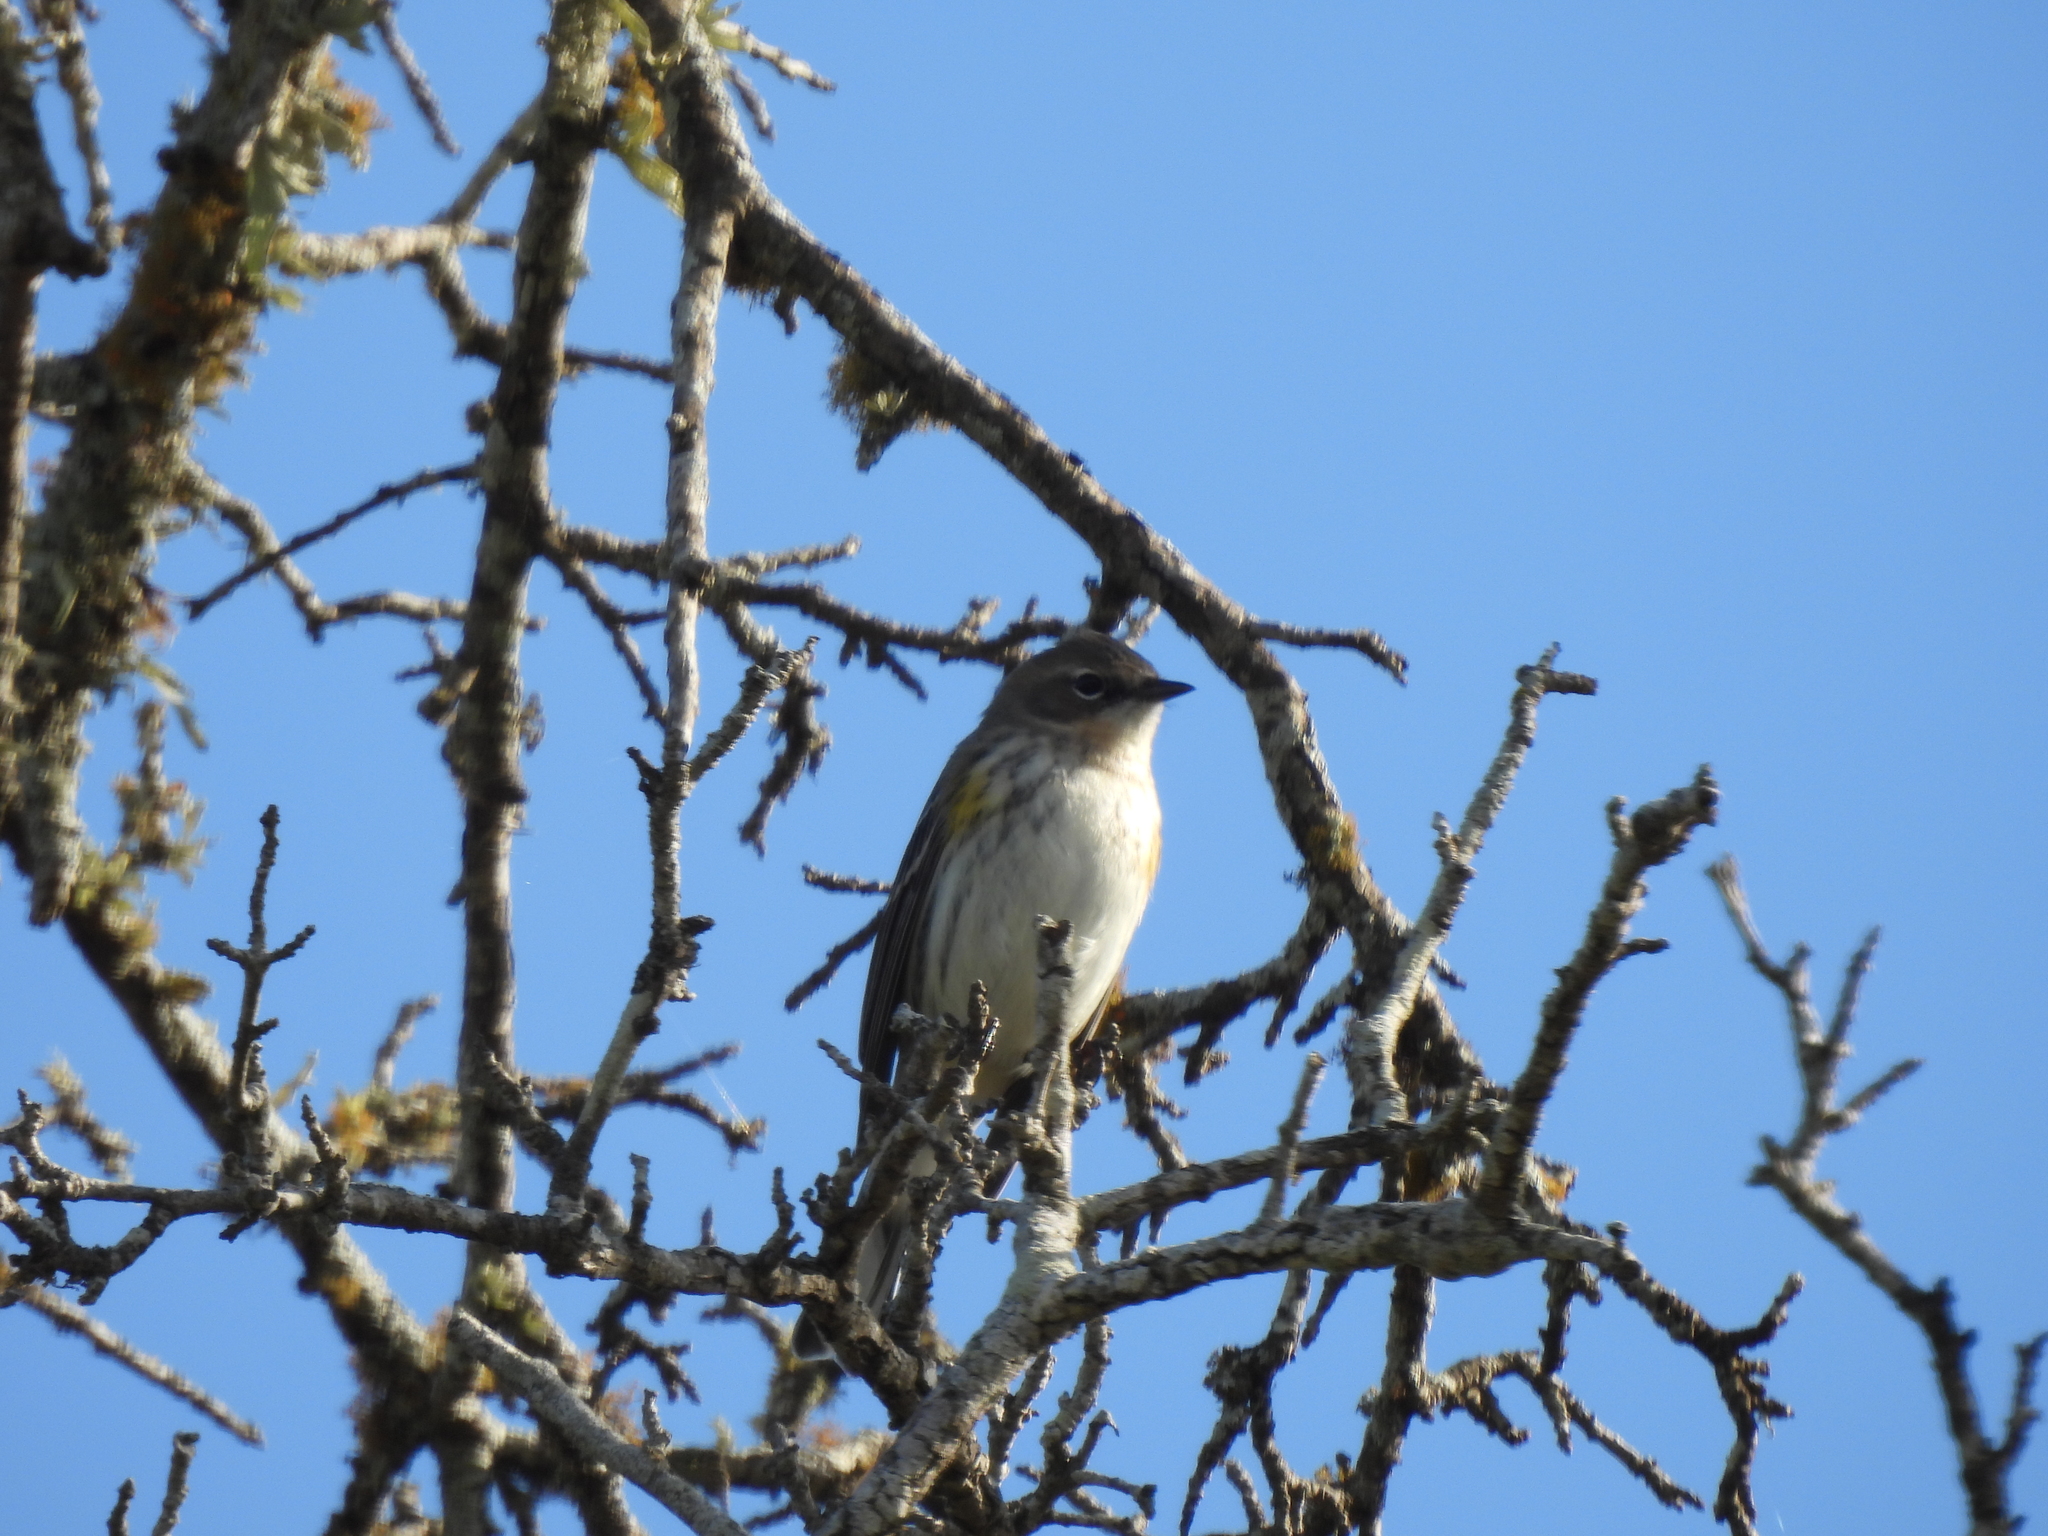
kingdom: Animalia
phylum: Chordata
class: Aves
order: Passeriformes
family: Parulidae
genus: Setophaga
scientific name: Setophaga coronata
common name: Myrtle warbler
